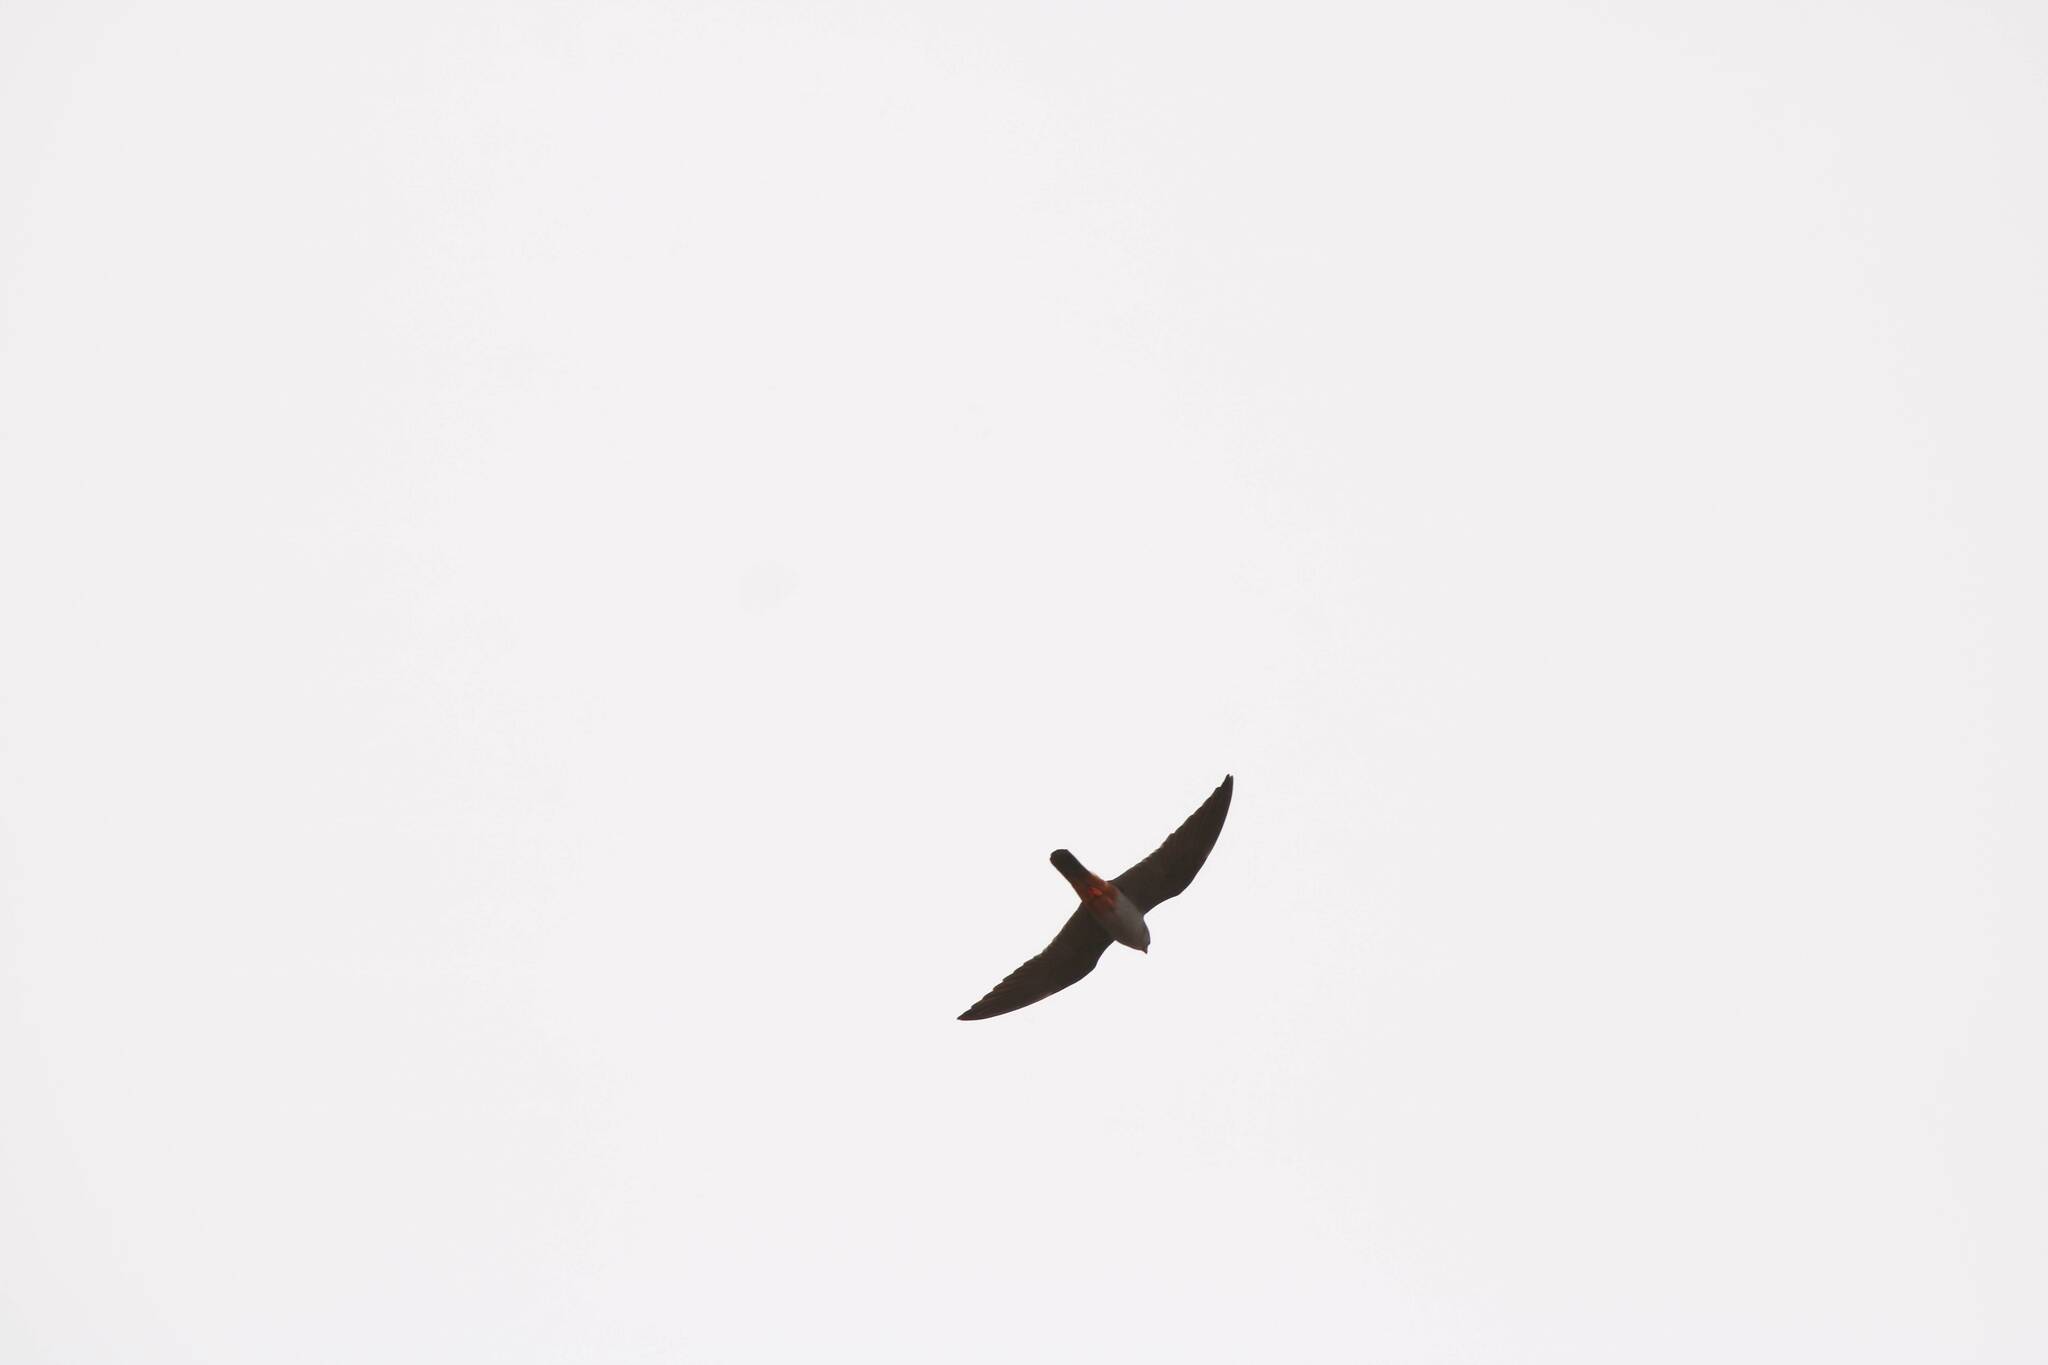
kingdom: Animalia
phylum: Chordata
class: Aves
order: Falconiformes
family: Falconidae
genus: Falco
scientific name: Falco vespertinus
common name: Red-footed falcon
